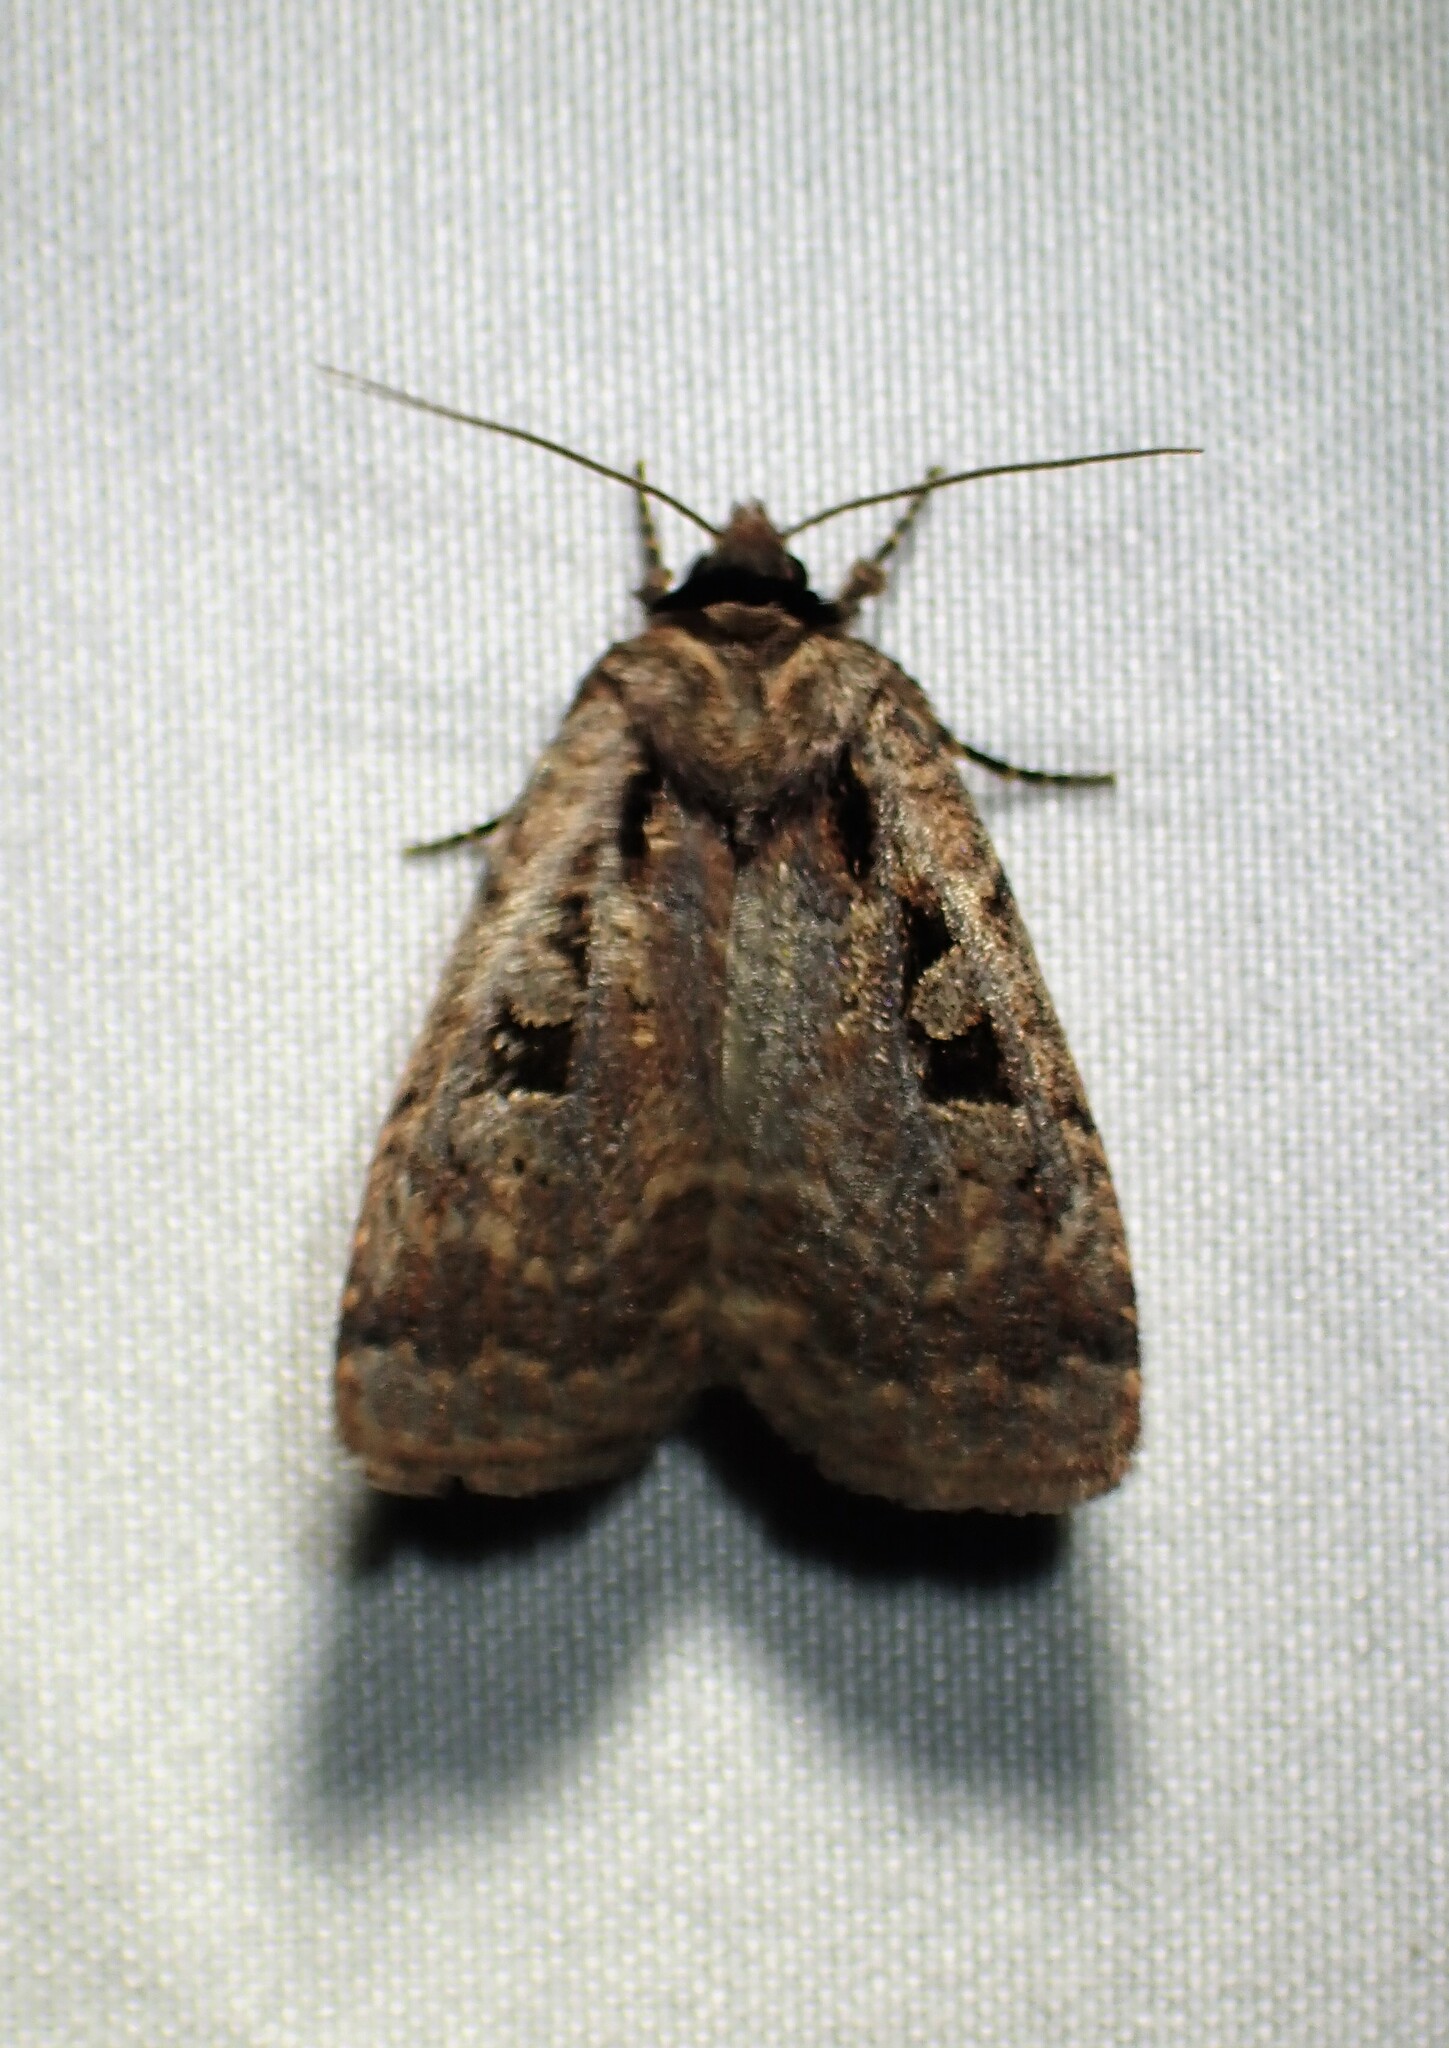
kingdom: Animalia
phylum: Arthropoda
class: Insecta
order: Lepidoptera
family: Noctuidae
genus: Eueretagrotis
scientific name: Eueretagrotis perattentus
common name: Two-spot dart moth
